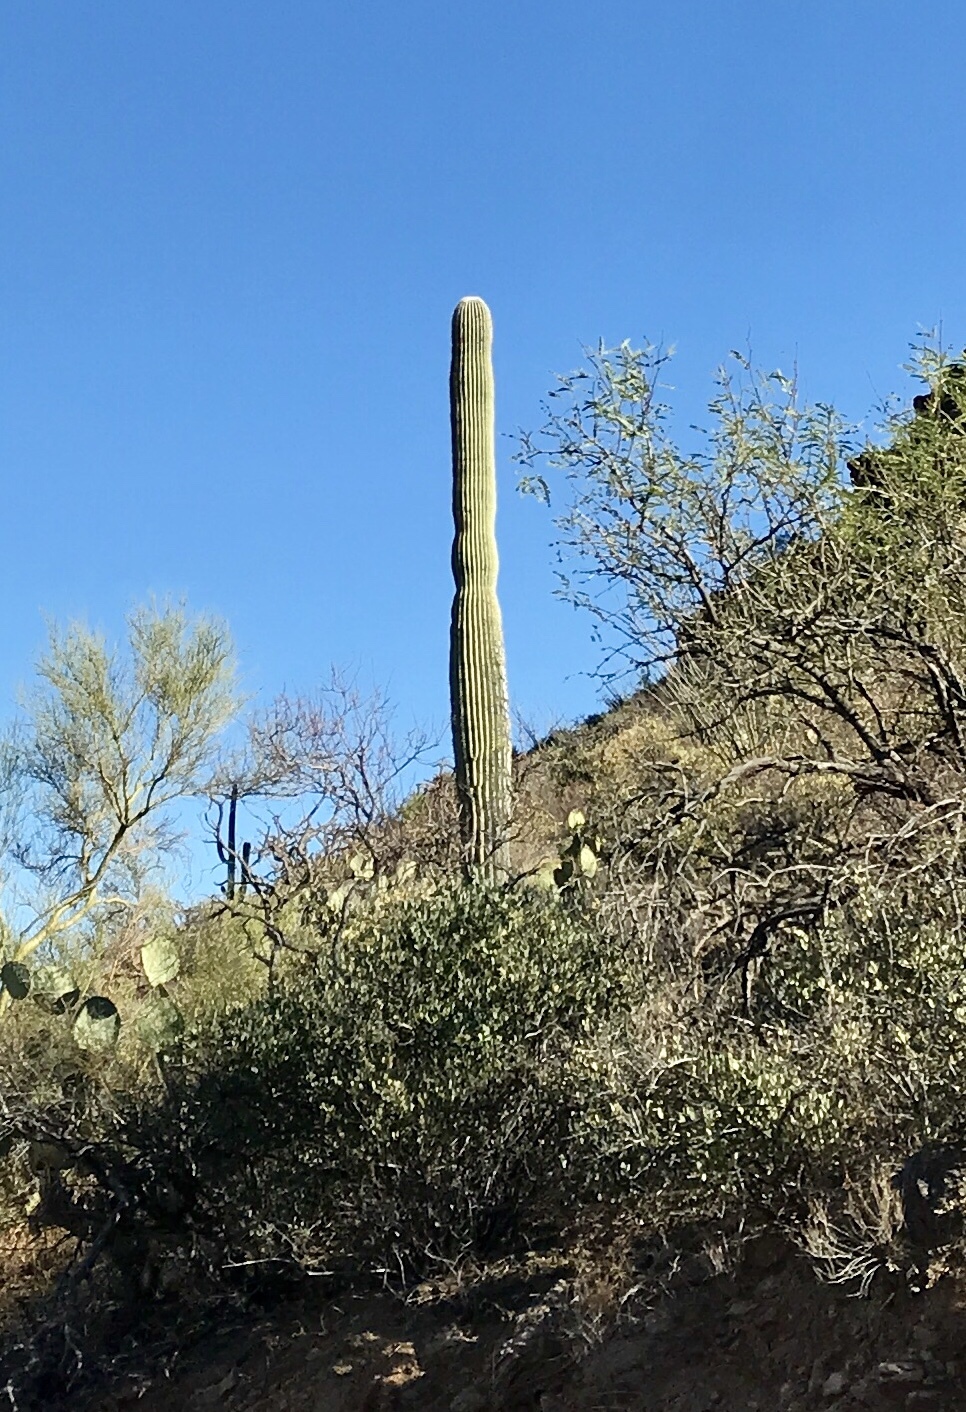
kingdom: Plantae
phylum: Tracheophyta
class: Magnoliopsida
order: Caryophyllales
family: Cactaceae
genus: Carnegiea
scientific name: Carnegiea gigantea
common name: Saguaro
